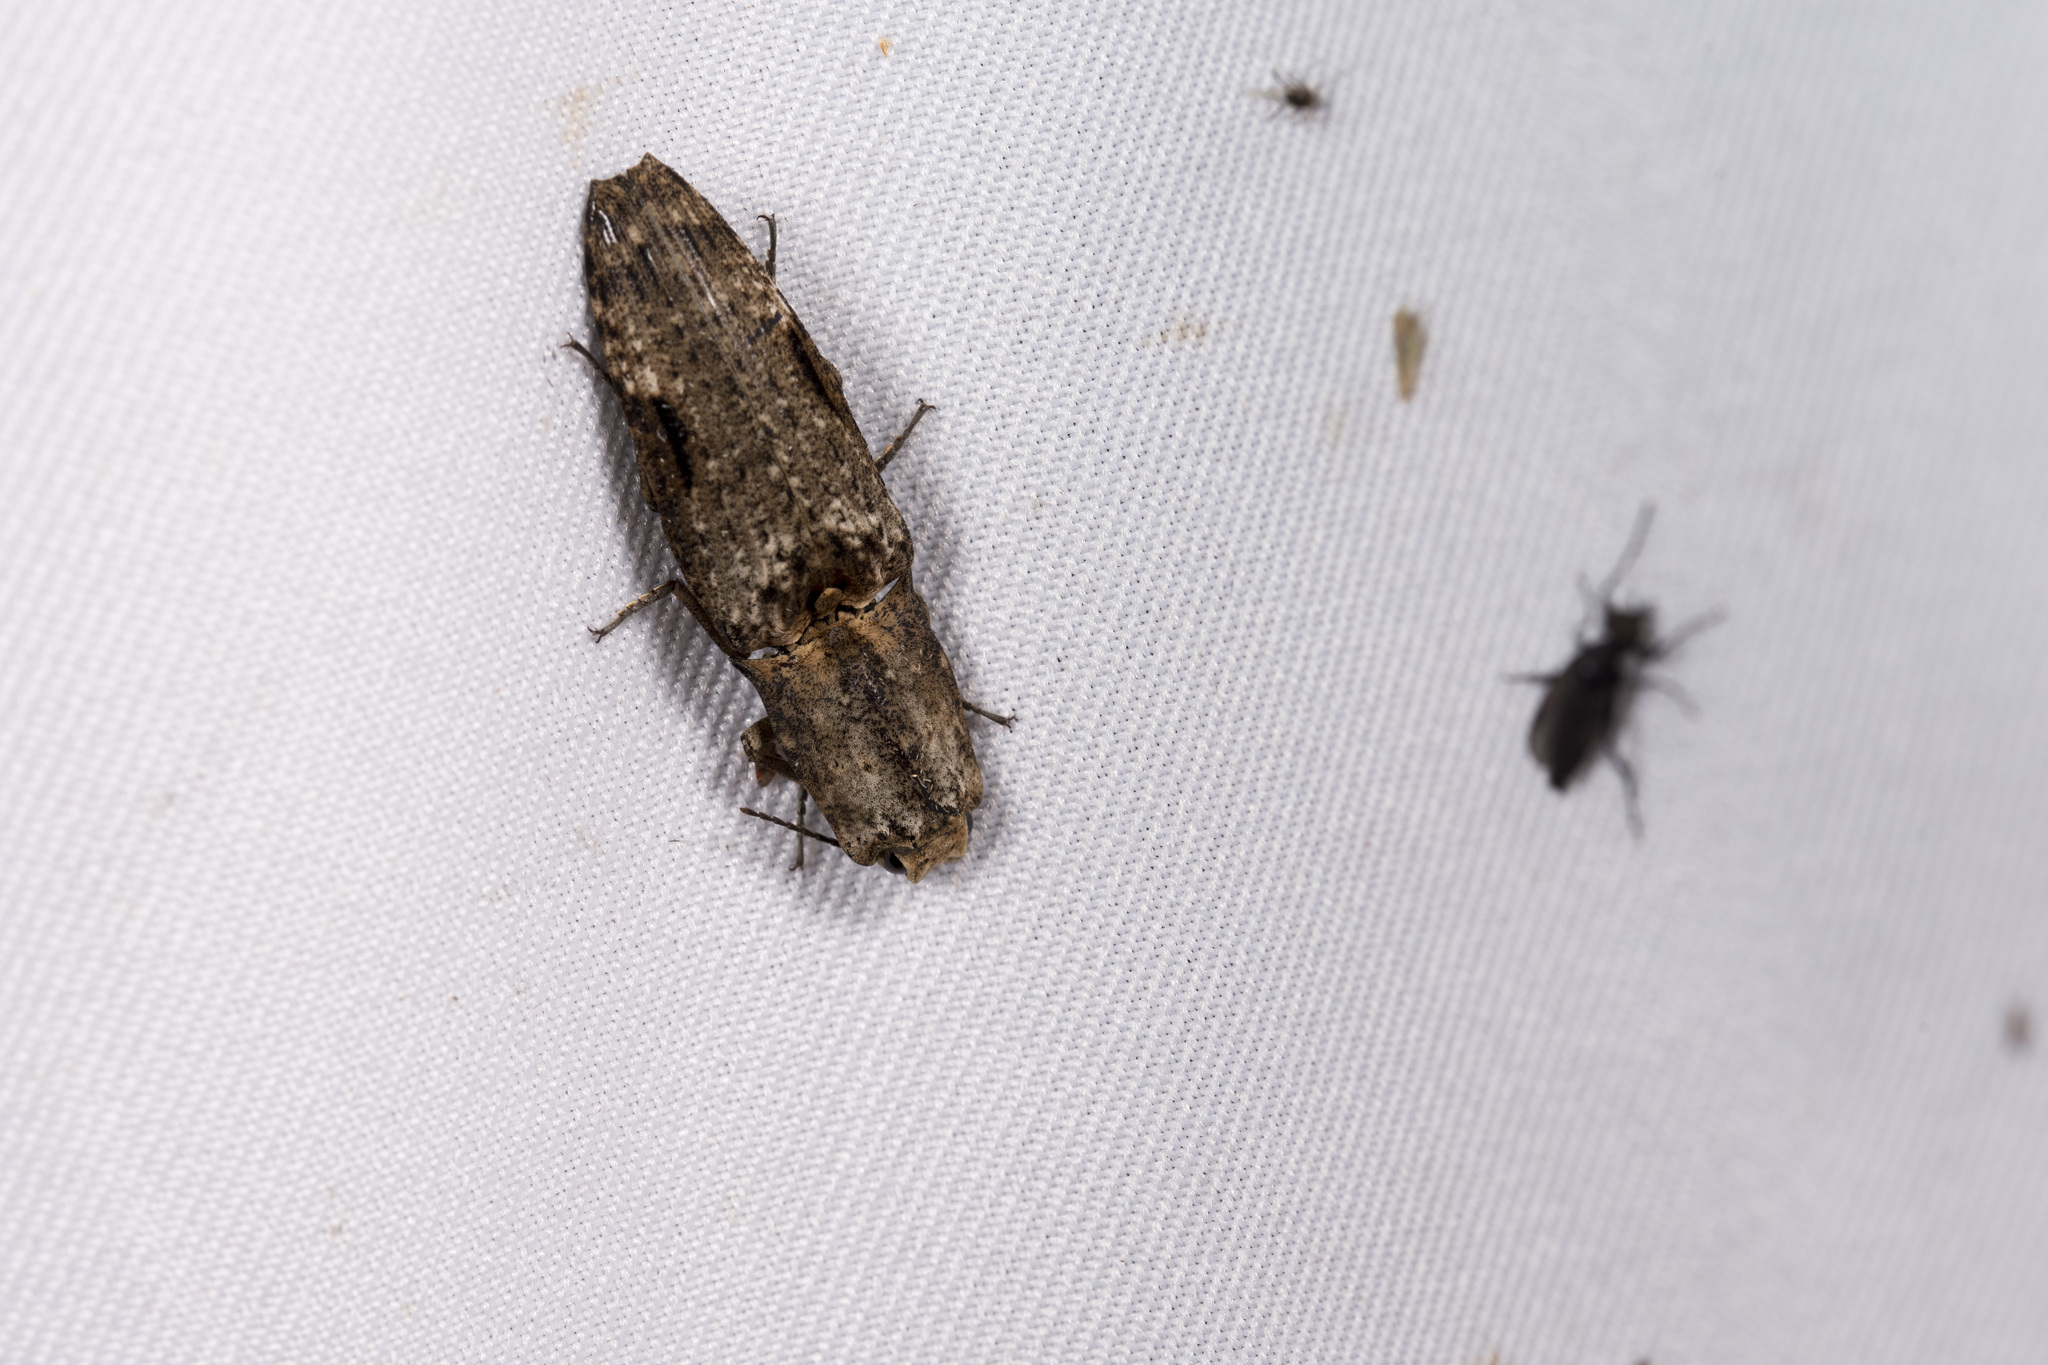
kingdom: Animalia
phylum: Arthropoda
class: Insecta
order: Coleoptera
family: Elateridae
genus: Cryptalaus
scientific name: Cryptalaus larvatus
